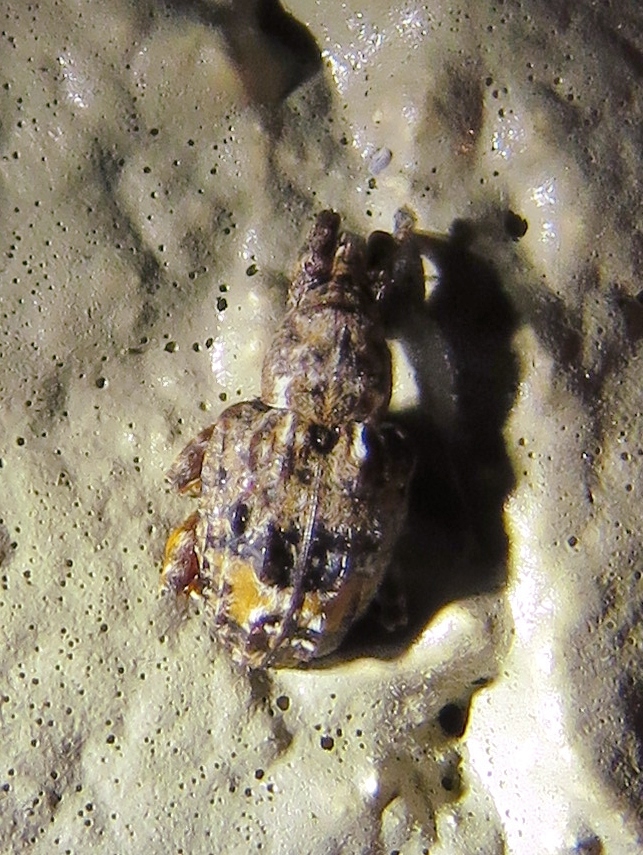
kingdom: Animalia
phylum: Arthropoda
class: Insecta
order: Coleoptera
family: Curculionidae
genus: Conotrachelus
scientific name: Conotrachelus nenuphar
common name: Plum curculio
